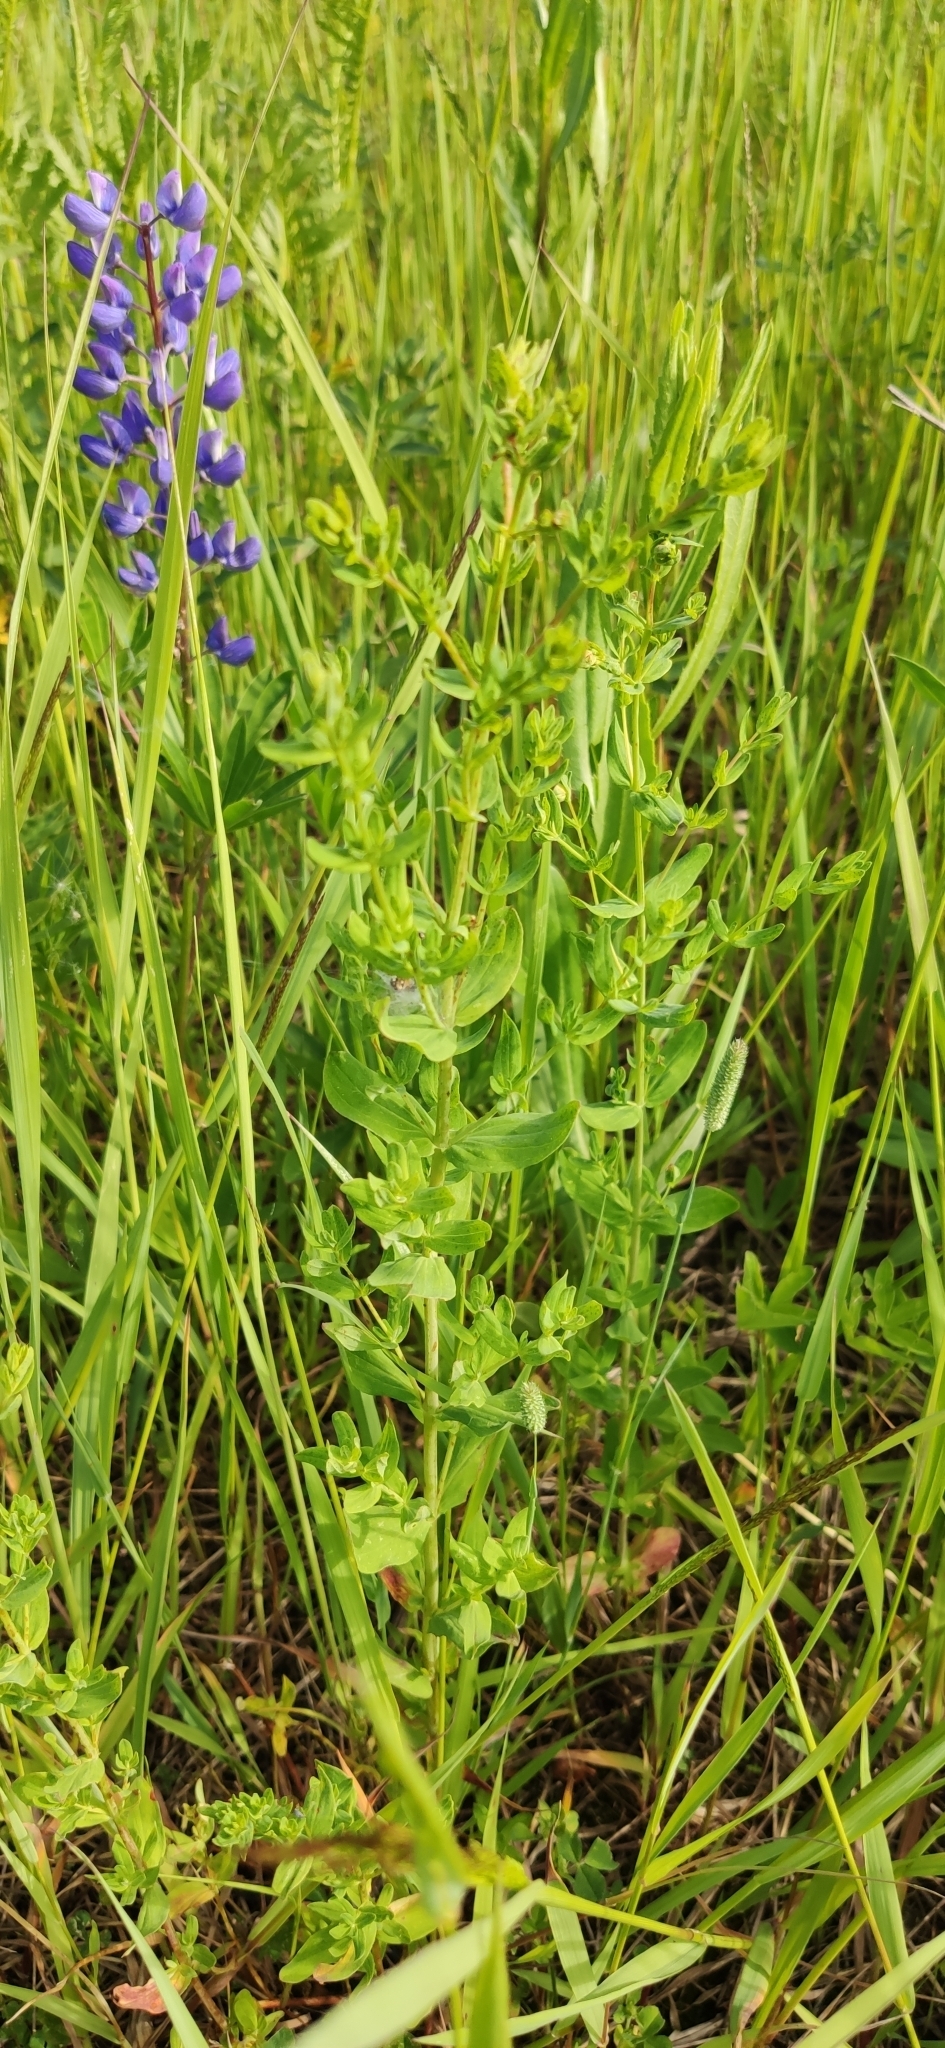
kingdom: Plantae
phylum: Tracheophyta
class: Magnoliopsida
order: Malpighiales
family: Hypericaceae
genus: Hypericum
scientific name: Hypericum perforatum
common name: Common st. johnswort
